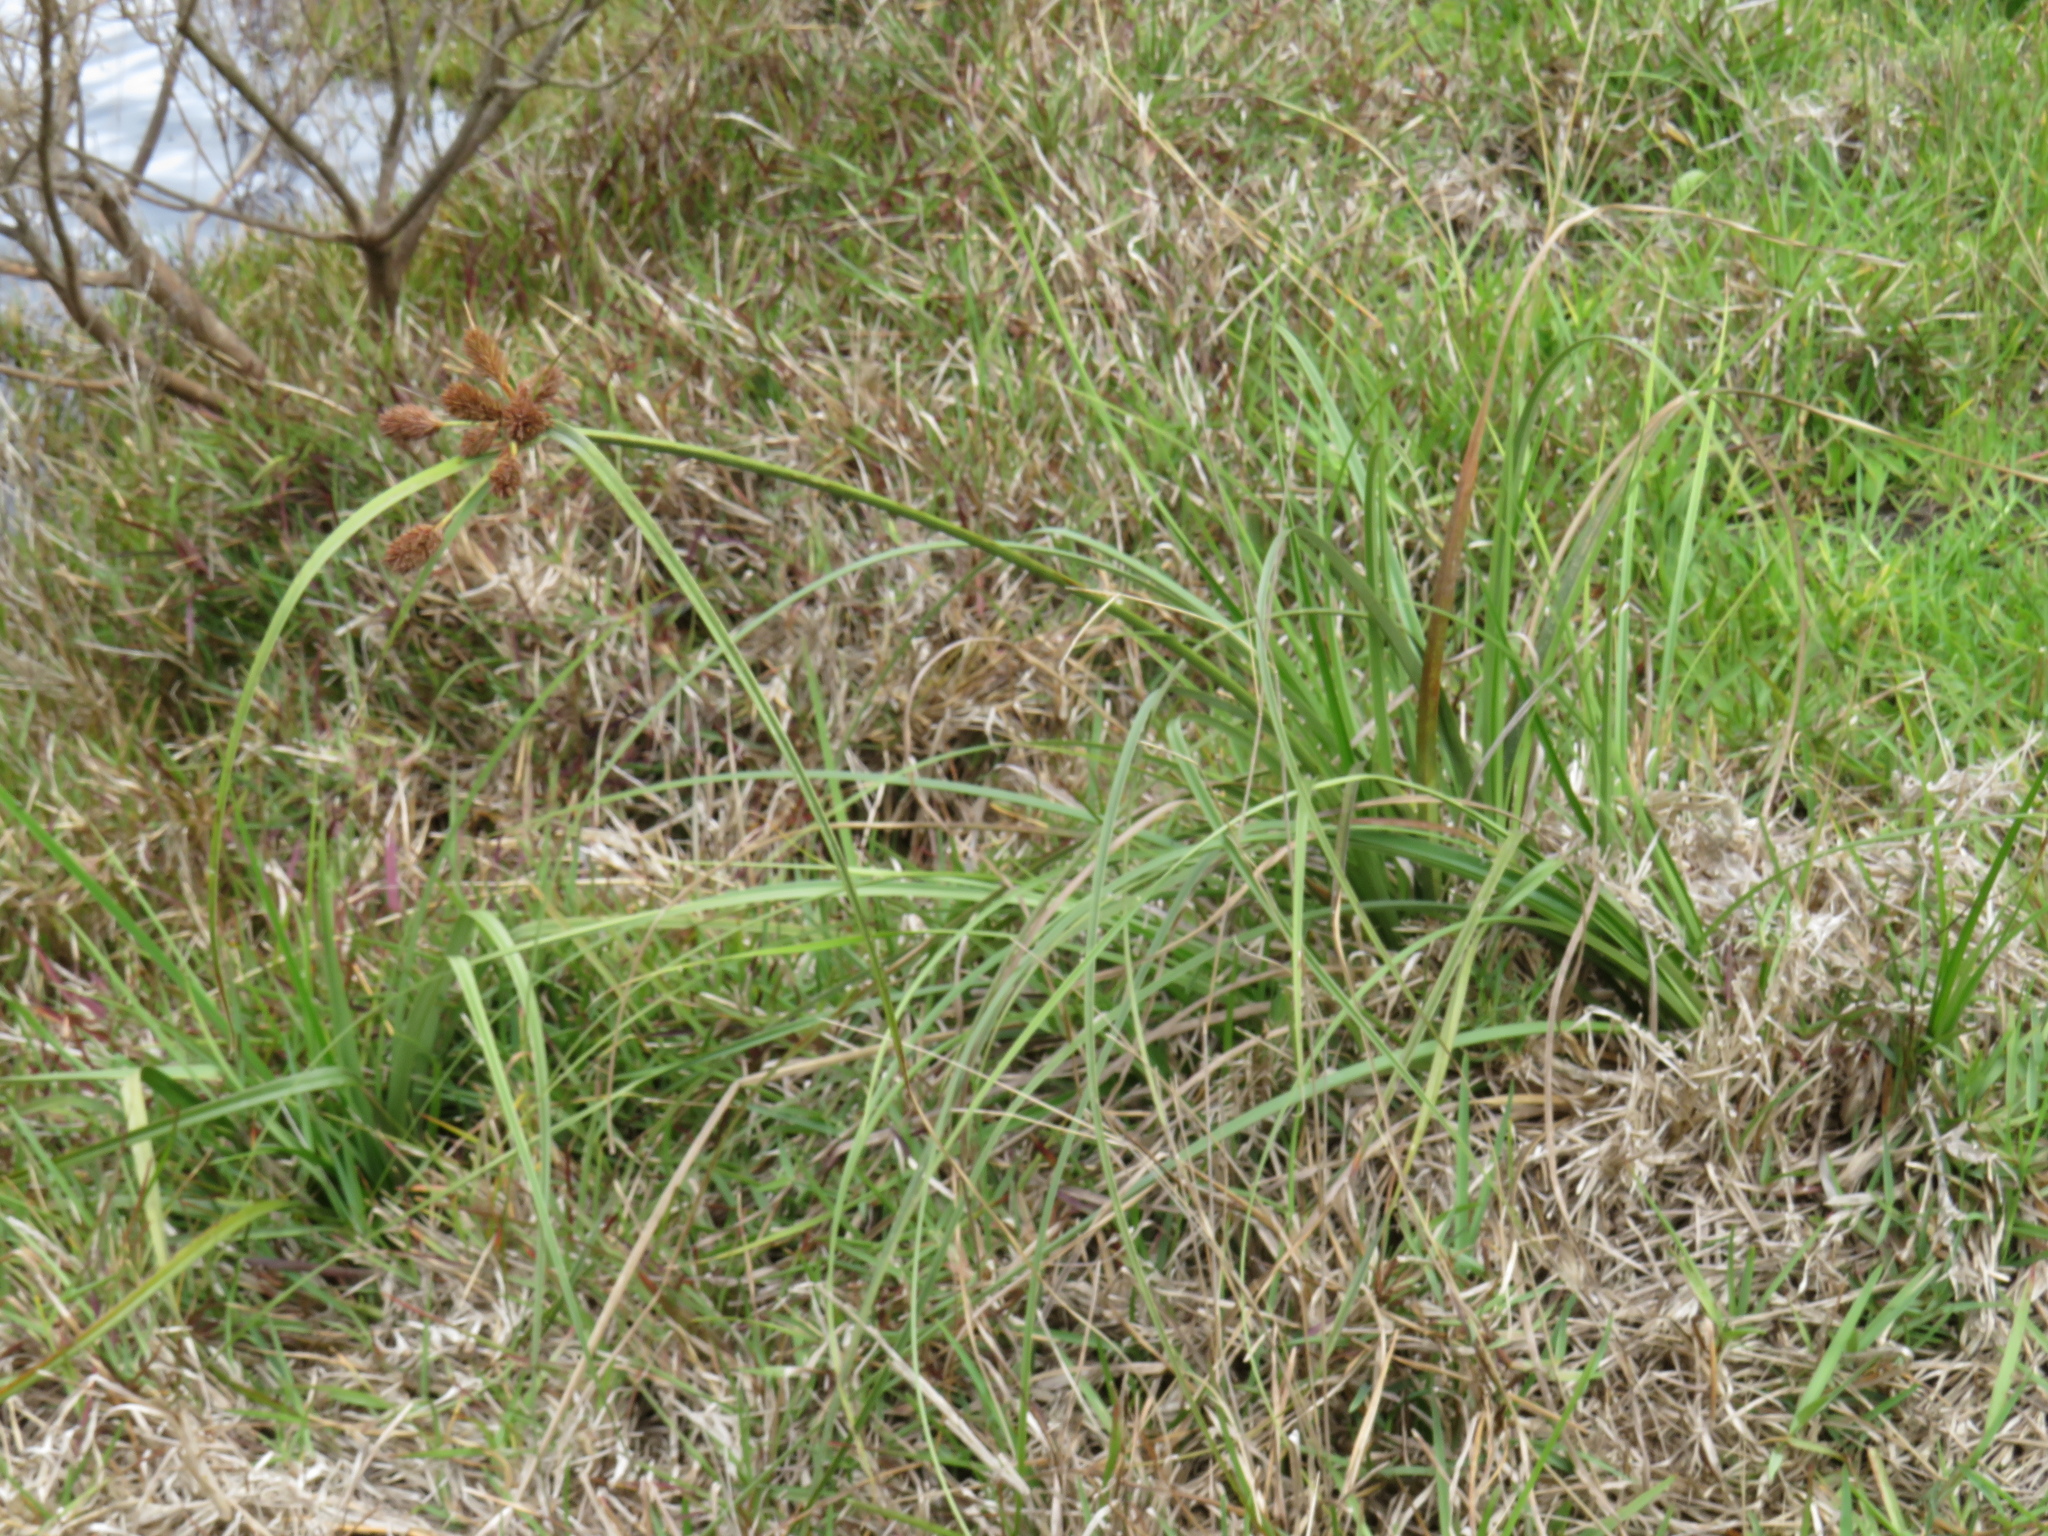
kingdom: Plantae
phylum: Tracheophyta
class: Liliopsida
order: Poales
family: Cyperaceae
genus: Cyperus
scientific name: Cyperus thunbergii
